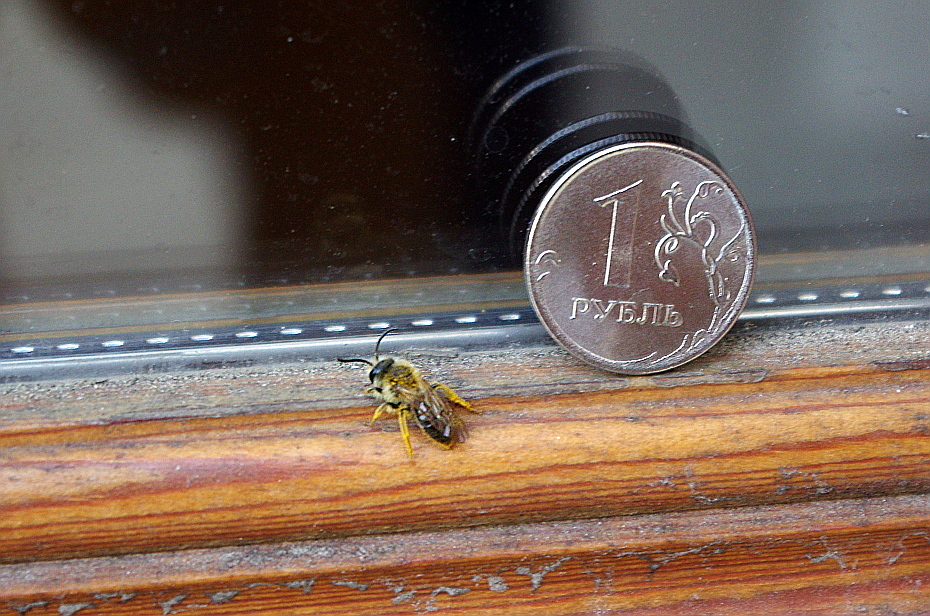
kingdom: Animalia
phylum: Arthropoda
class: Insecta
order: Hymenoptera
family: Andrenidae
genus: Andrena
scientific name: Andrena
